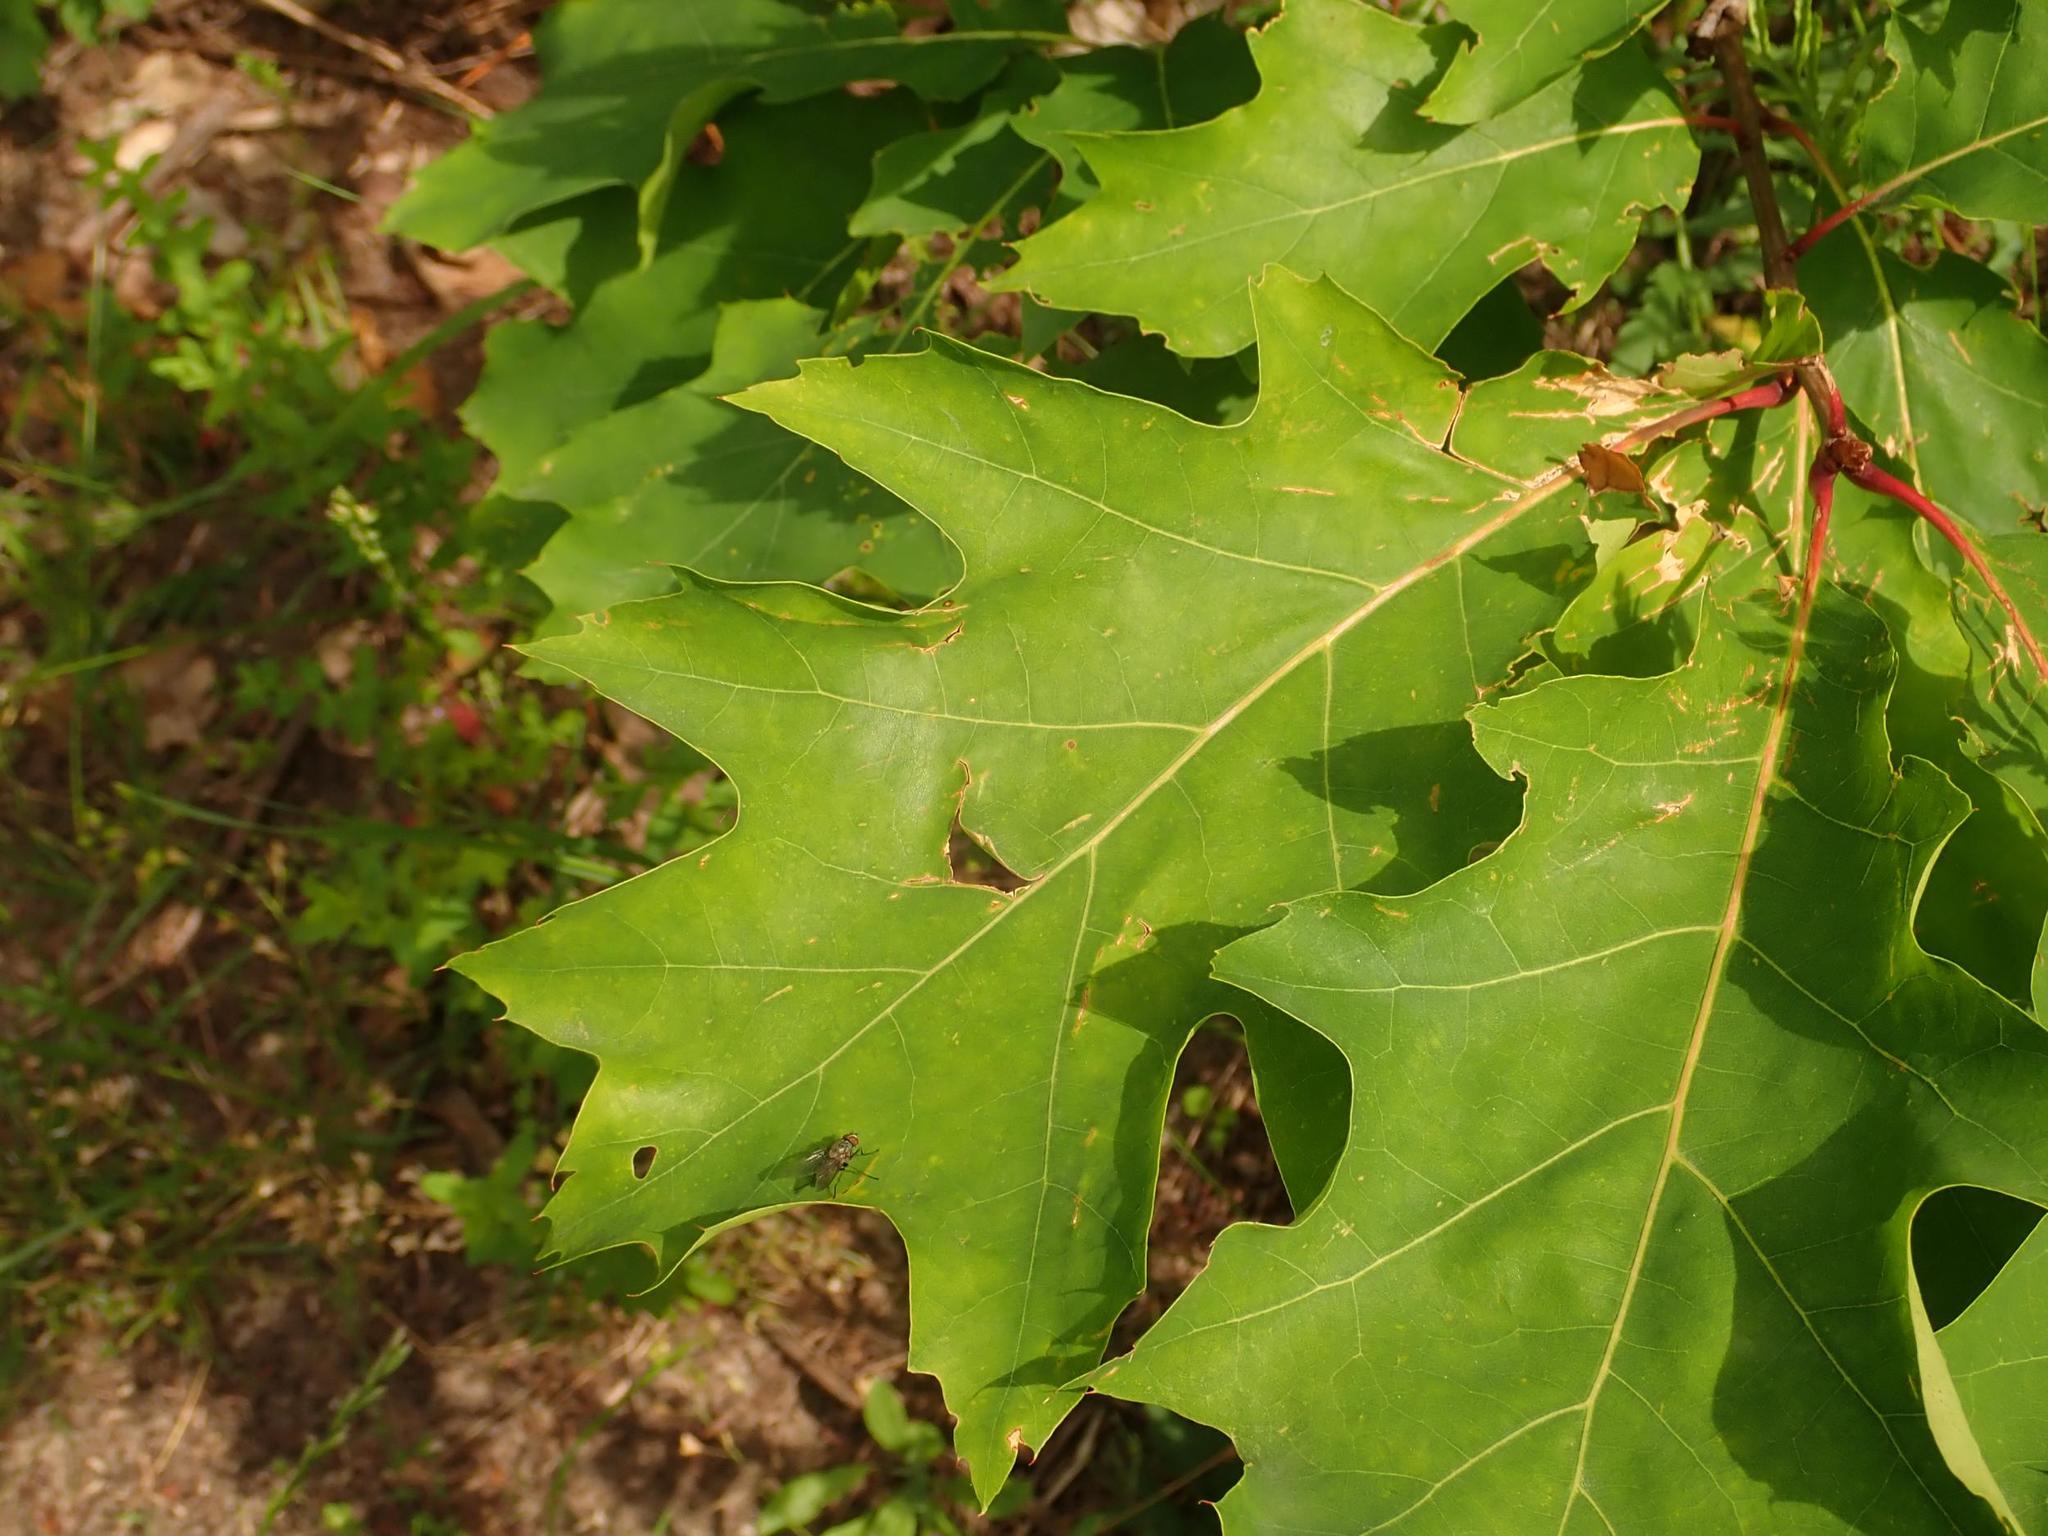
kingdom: Plantae
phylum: Tracheophyta
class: Magnoliopsida
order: Fagales
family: Fagaceae
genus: Quercus
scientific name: Quercus rubra
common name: Red oak
